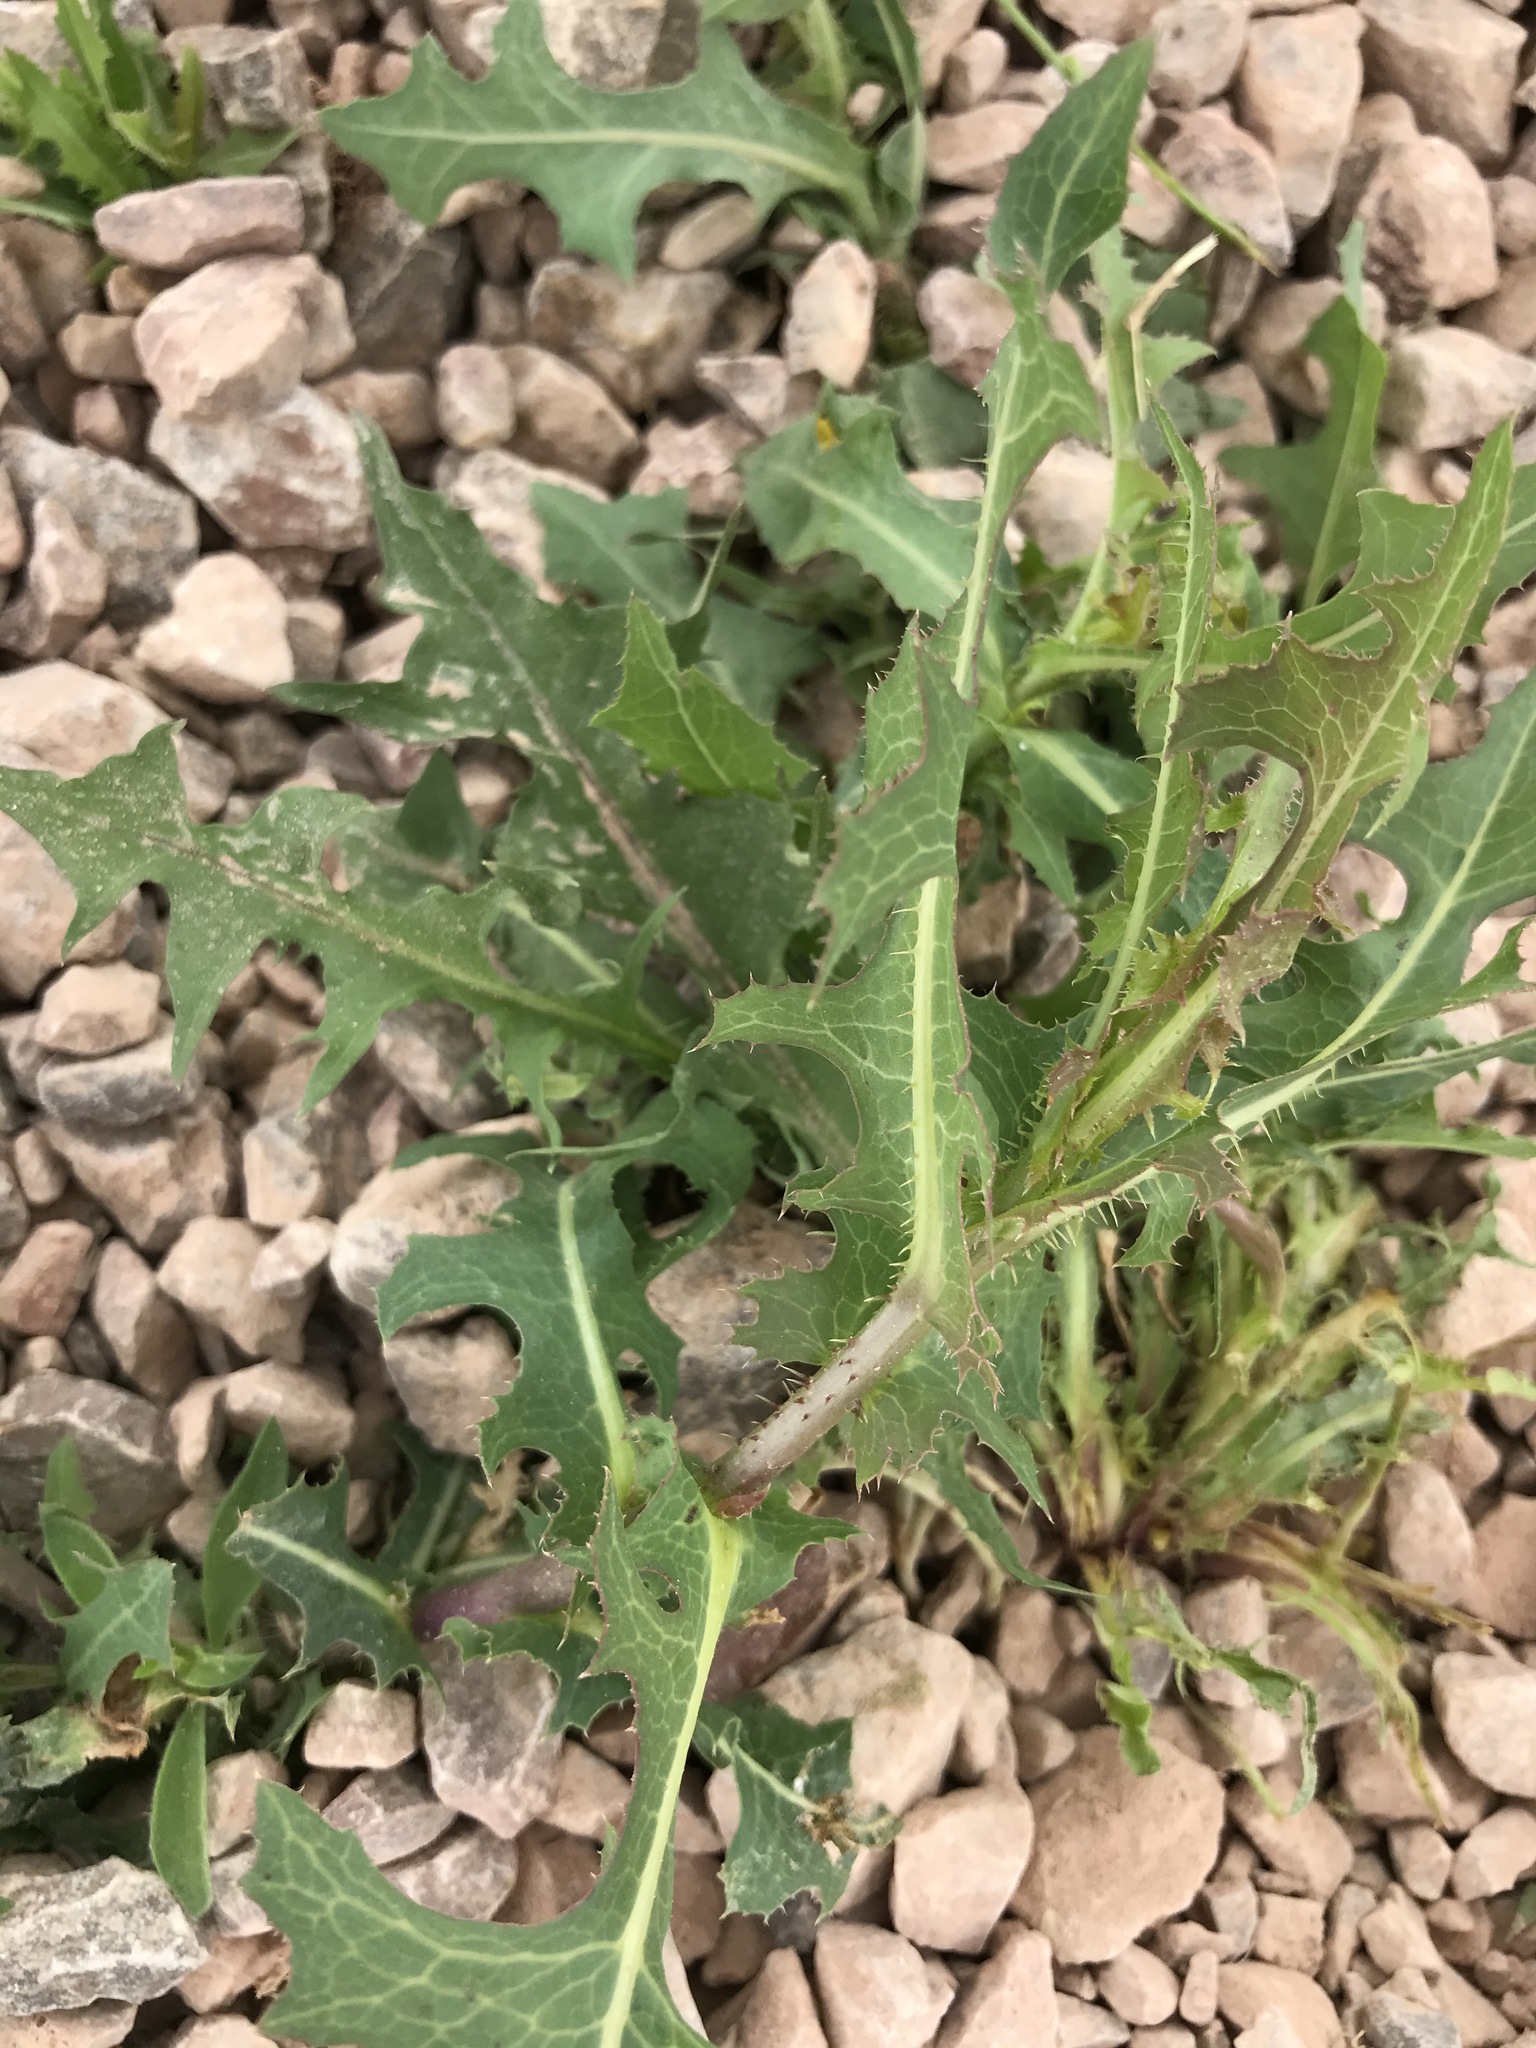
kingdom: Plantae
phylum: Tracheophyta
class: Magnoliopsida
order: Asterales
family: Asteraceae
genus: Lactuca
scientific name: Lactuca serriola
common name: Prickly lettuce
